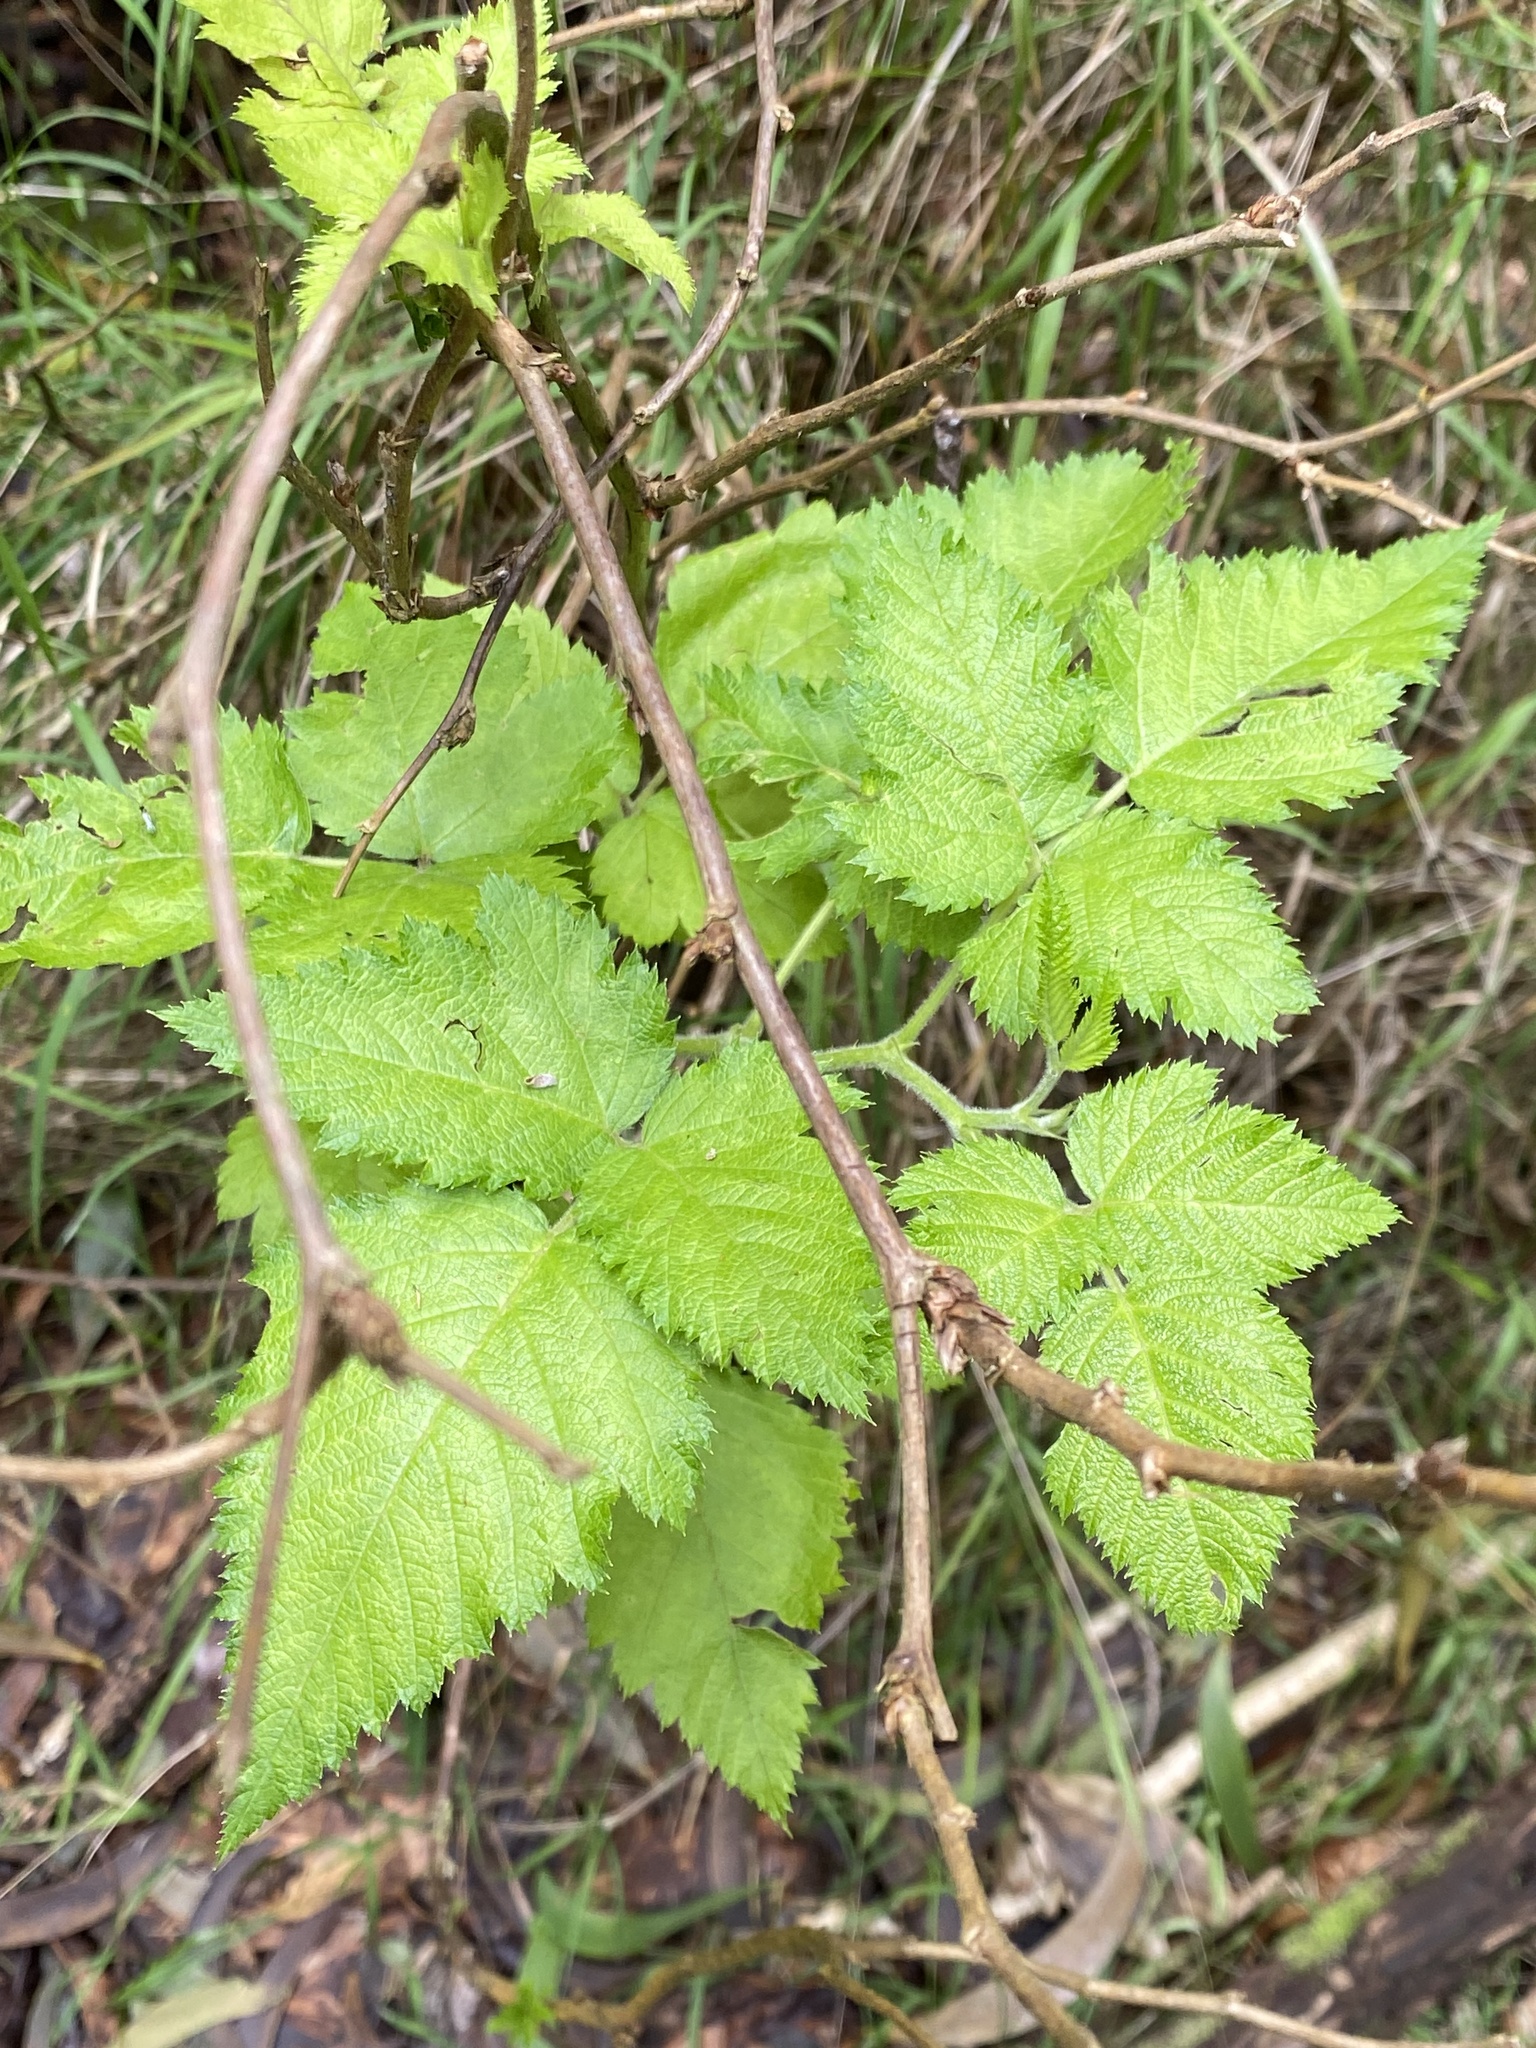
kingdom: Plantae
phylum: Tracheophyta
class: Magnoliopsida
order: Rosales
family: Rosaceae
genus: Rubus
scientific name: Rubus hawaiensis
